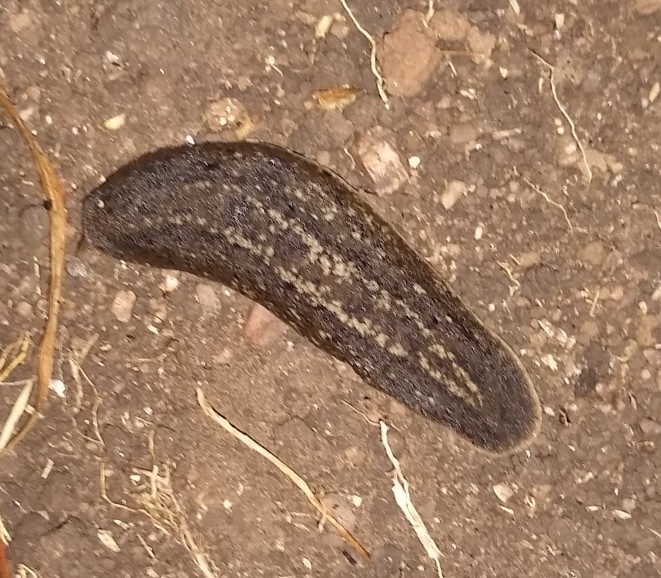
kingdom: Animalia
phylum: Mollusca
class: Gastropoda
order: Systellommatophora
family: Veronicellidae
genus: Phyllocaulis
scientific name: Phyllocaulis soleiformis
